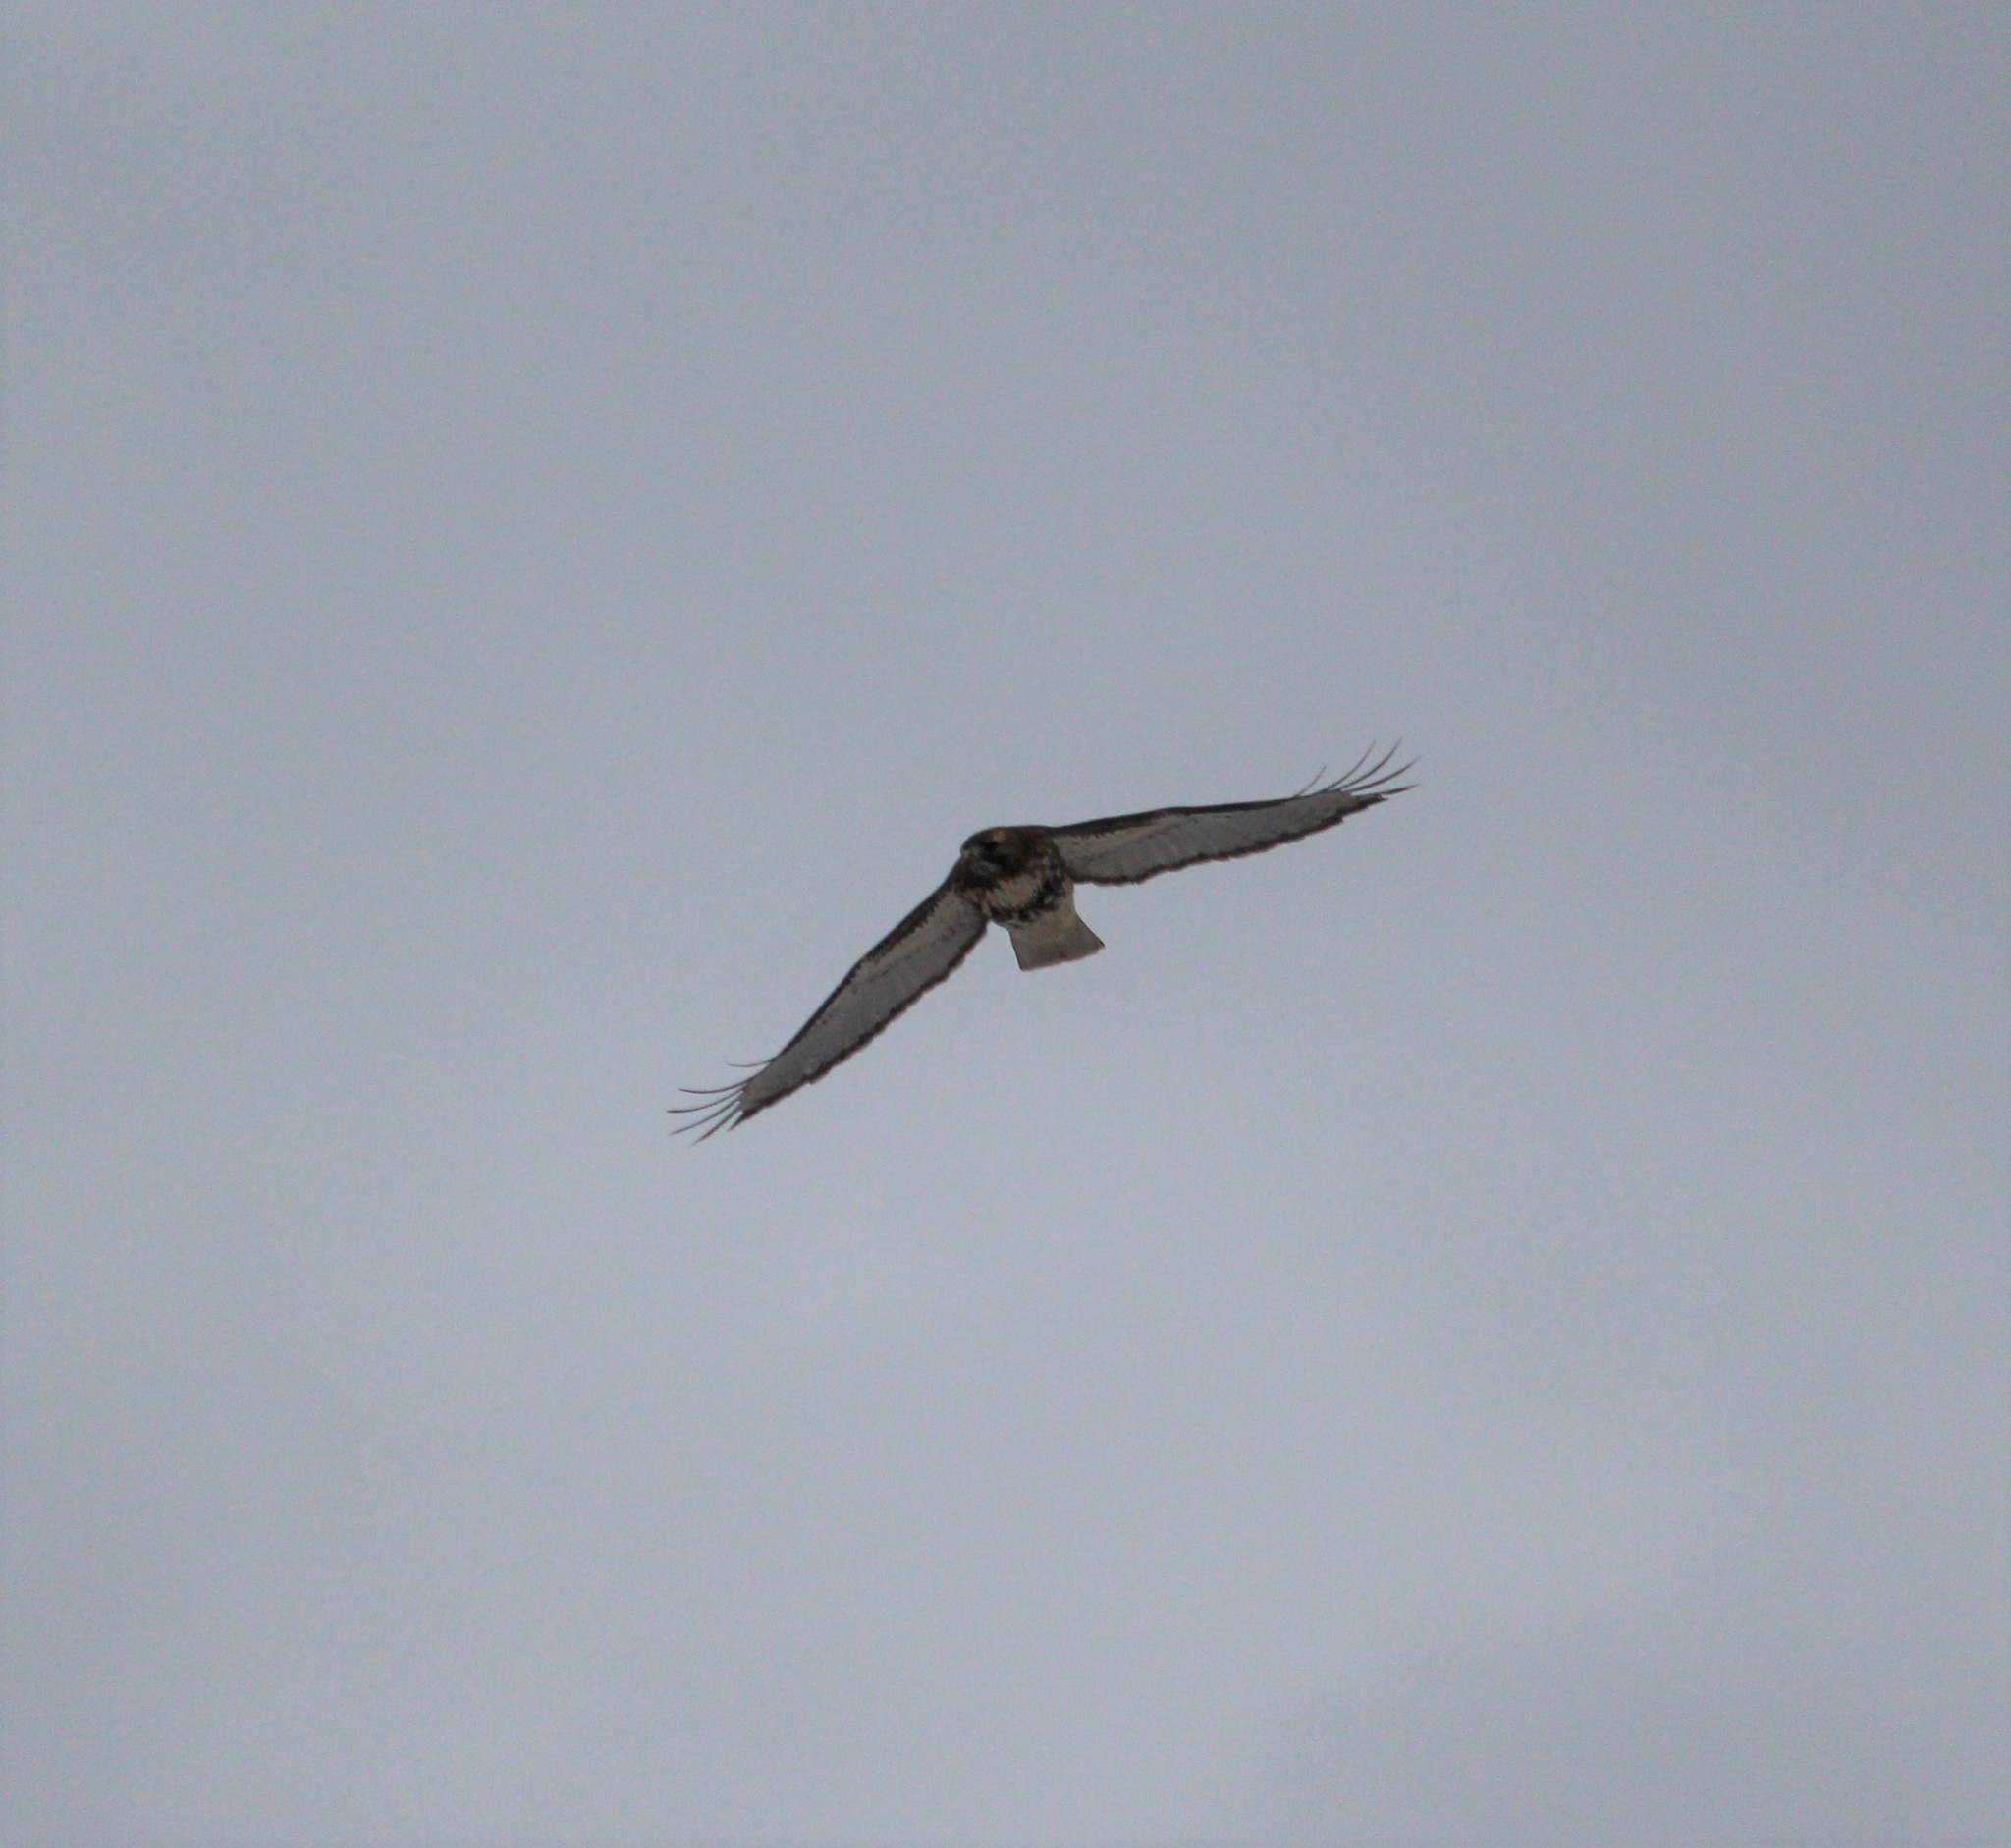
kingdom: Animalia
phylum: Chordata
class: Aves
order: Accipitriformes
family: Accipitridae
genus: Buteo
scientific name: Buteo jamaicensis
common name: Red-tailed hawk
